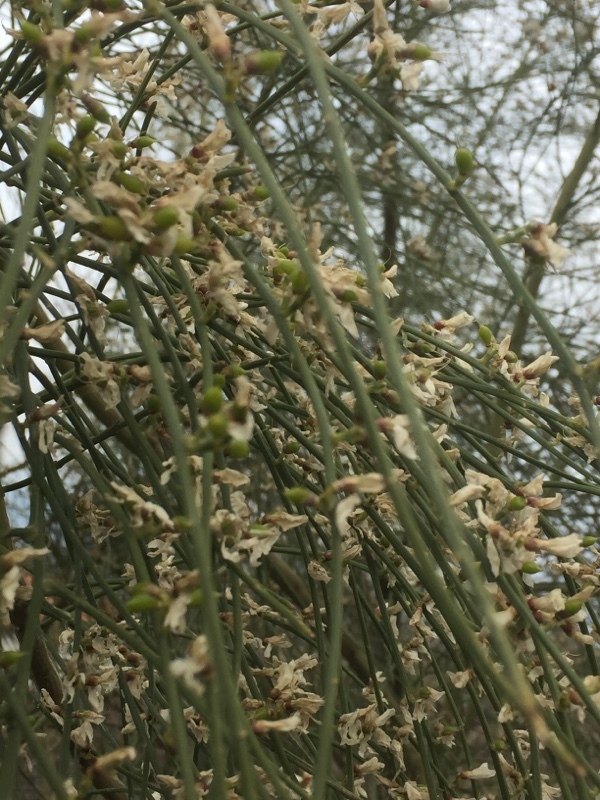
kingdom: Plantae
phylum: Tracheophyta
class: Magnoliopsida
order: Fabales
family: Fabaceae
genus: Retama
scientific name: Retama raetam
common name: Retem
